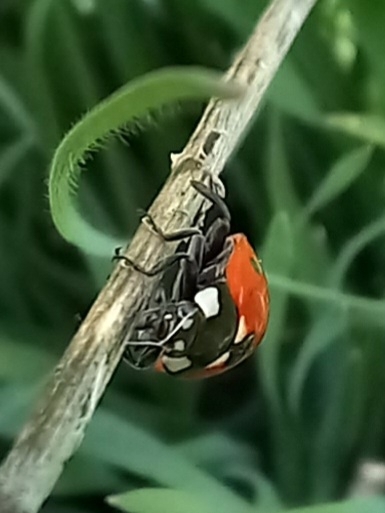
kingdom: Animalia
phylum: Arthropoda
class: Insecta
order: Coleoptera
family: Coccinellidae
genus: Coccinella
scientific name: Coccinella septempunctata
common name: Sevenspotted lady beetle
